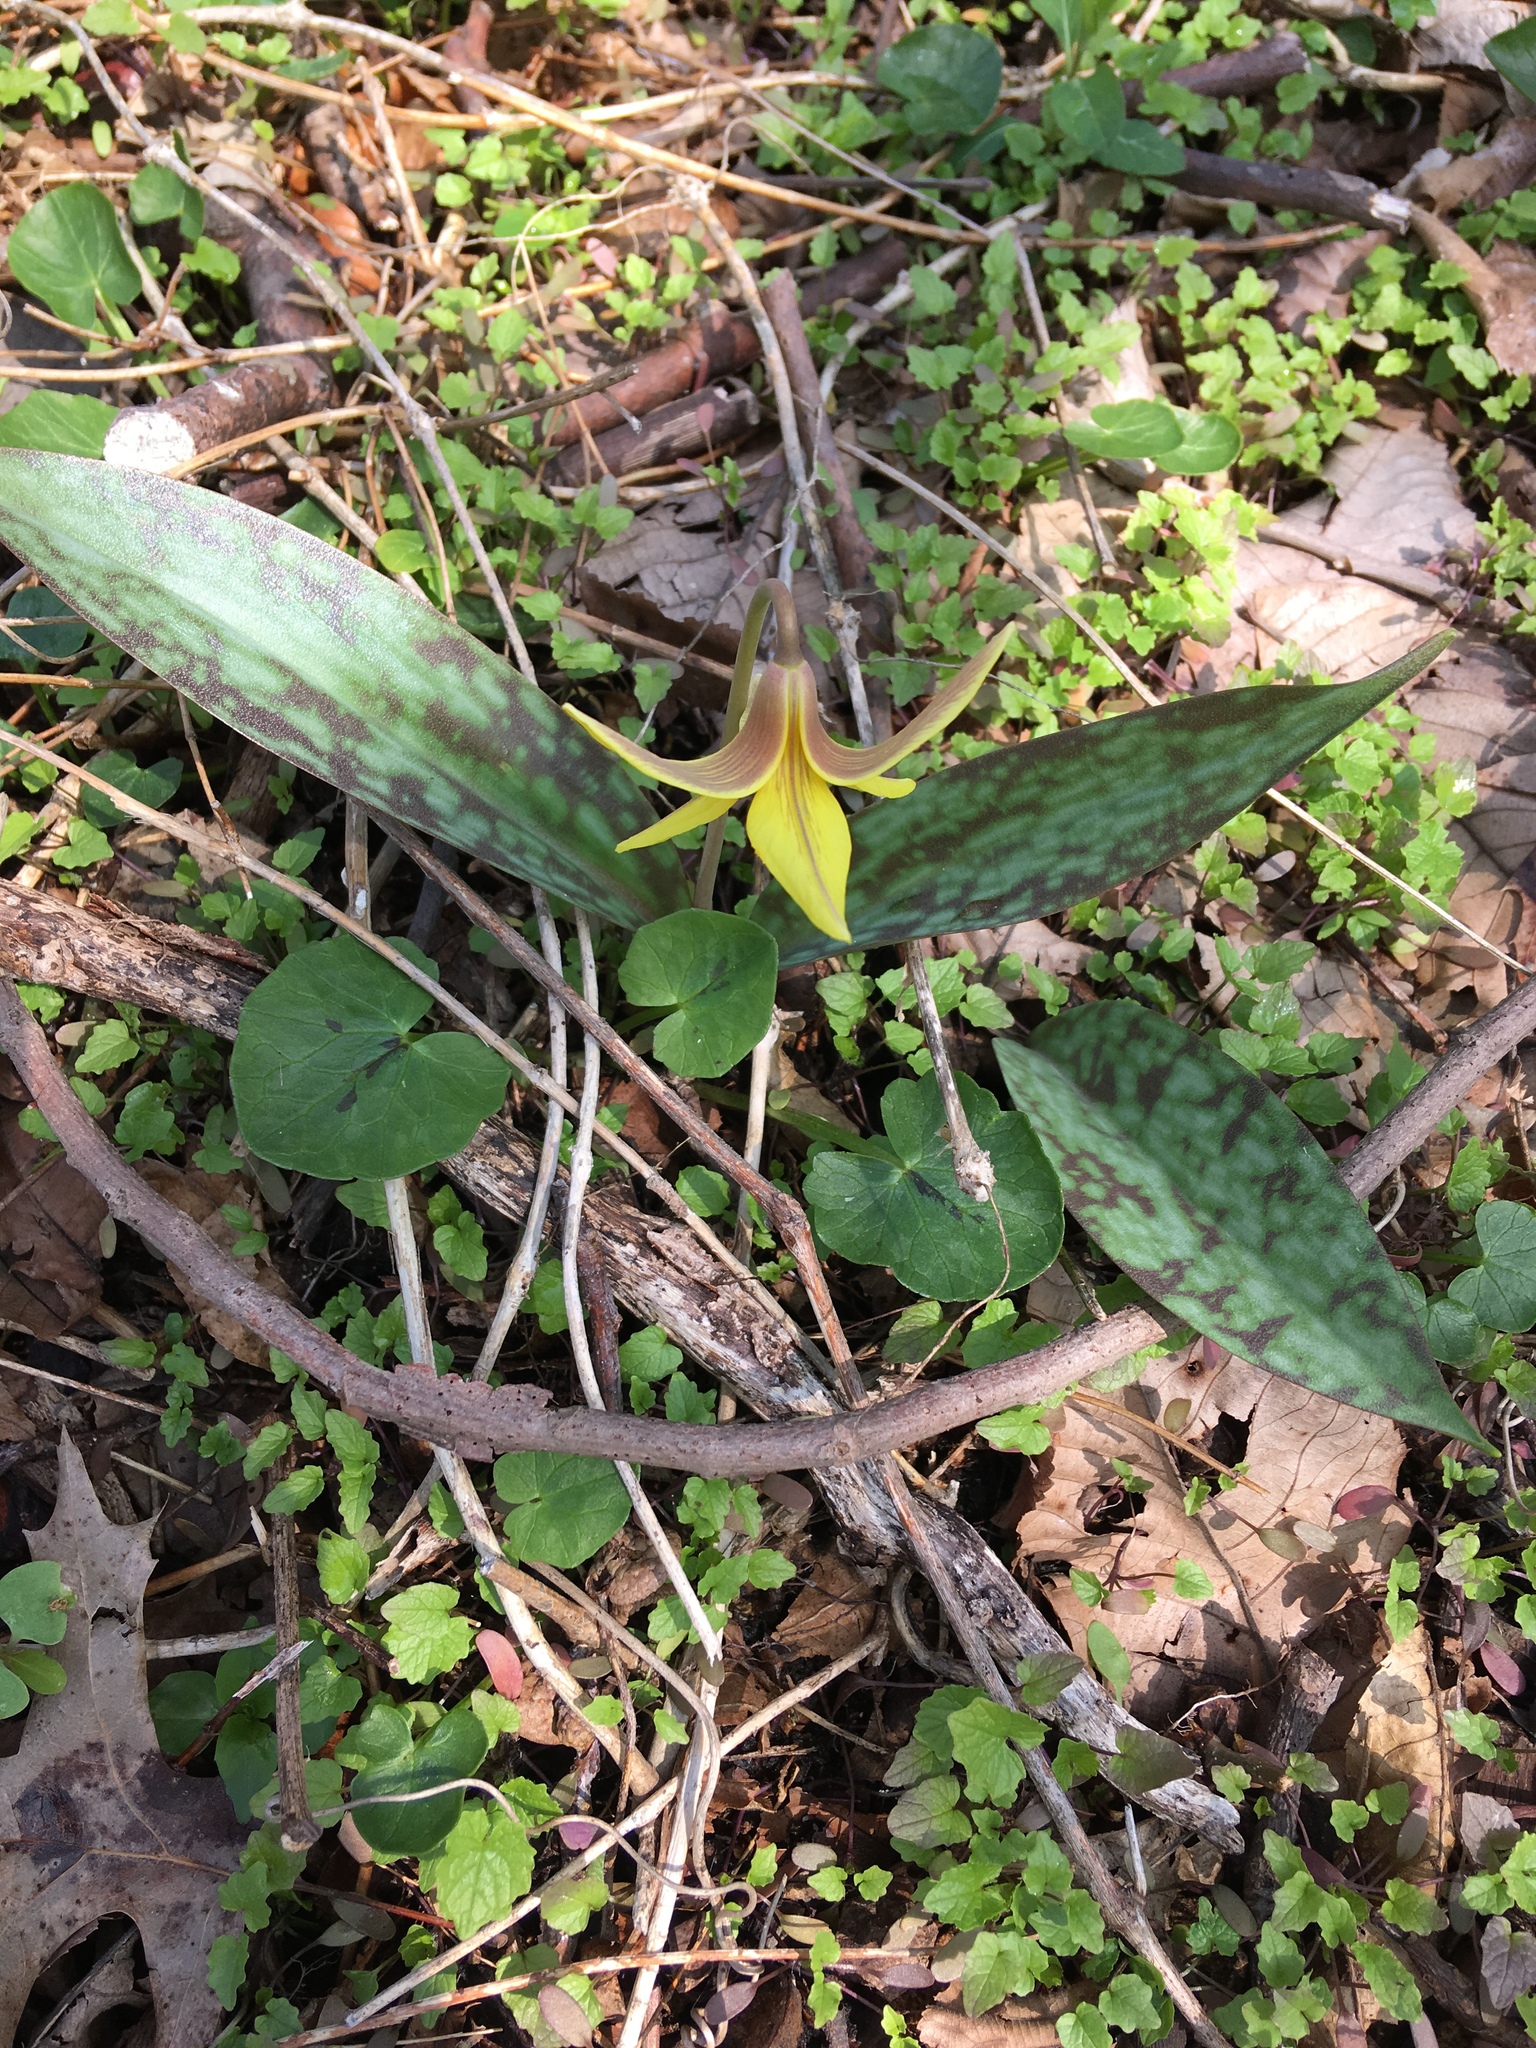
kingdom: Plantae
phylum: Tracheophyta
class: Liliopsida
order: Liliales
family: Liliaceae
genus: Erythronium
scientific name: Erythronium americanum
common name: Yellow adder's-tongue
